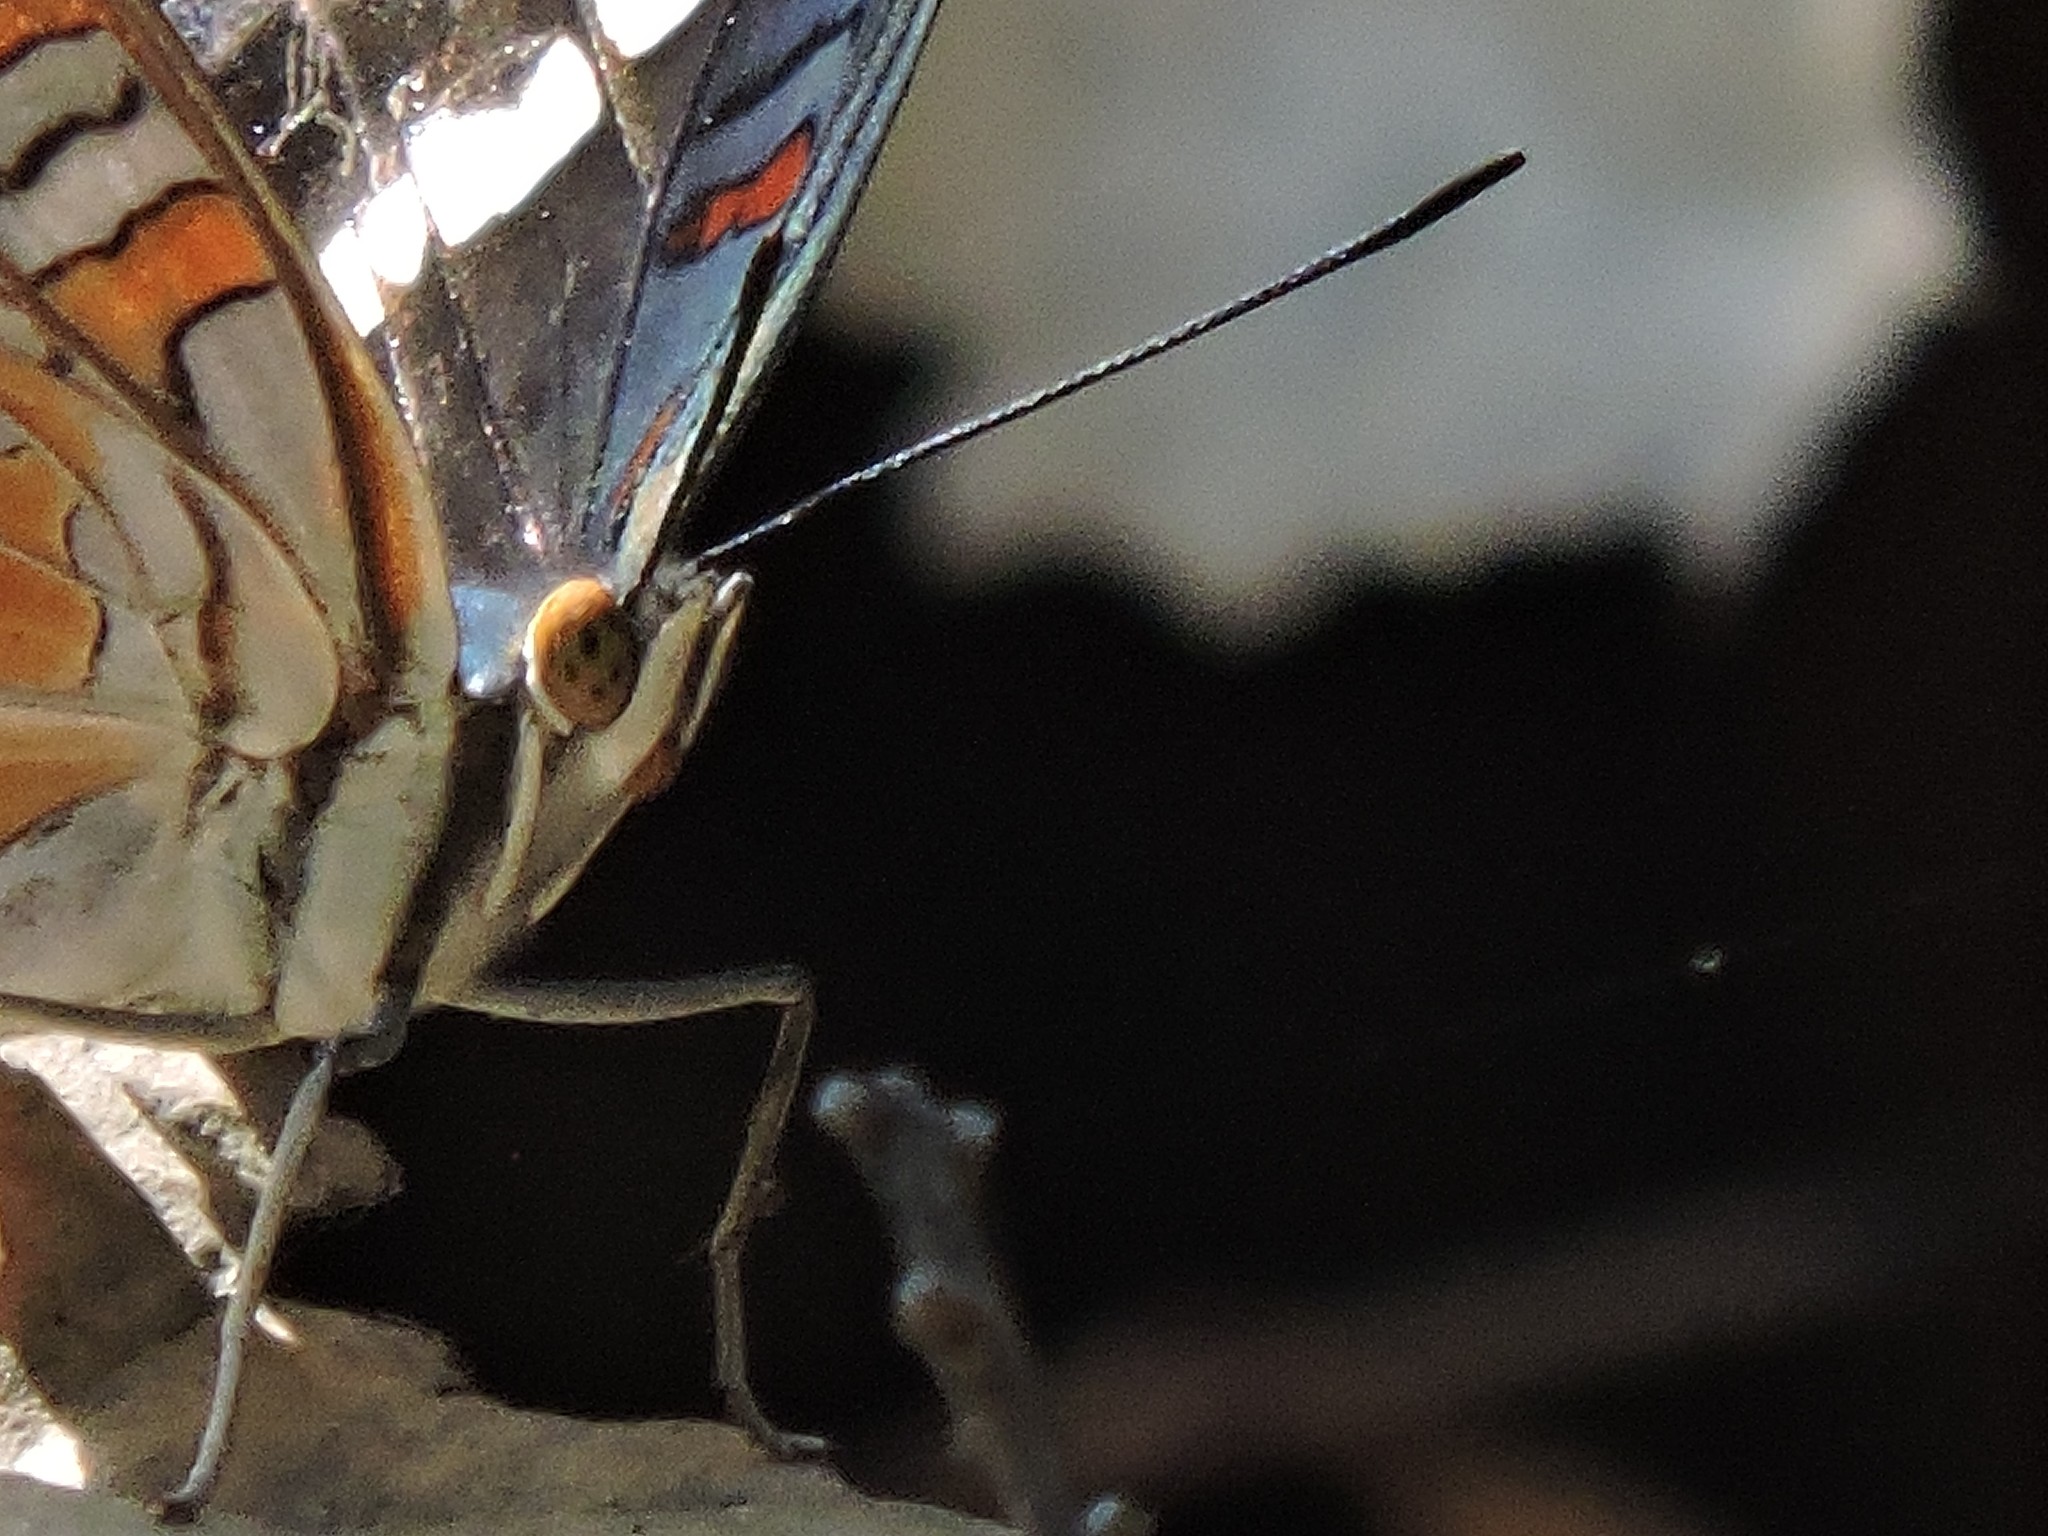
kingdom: Animalia
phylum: Arthropoda
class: Insecta
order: Lepidoptera
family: Nymphalidae
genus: Limenitis
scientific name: Limenitis bredowii
